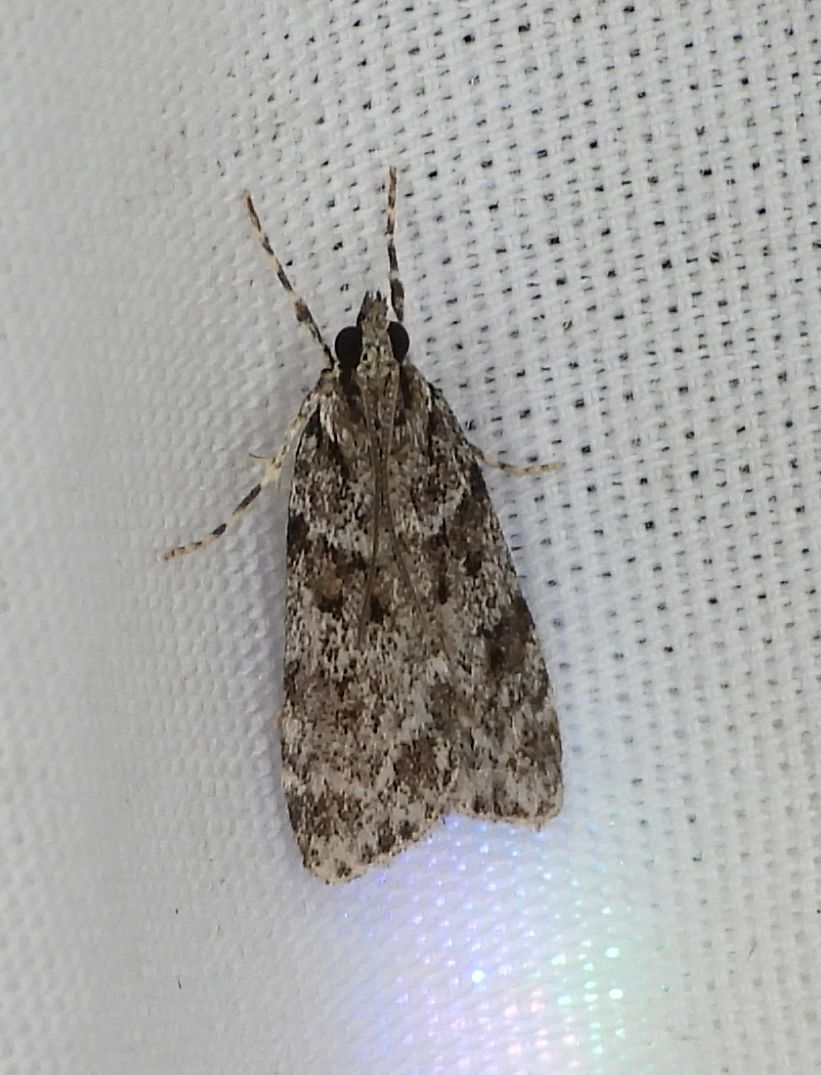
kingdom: Animalia
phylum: Arthropoda
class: Insecta
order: Lepidoptera
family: Crambidae
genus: Scoparia
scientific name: Scoparia biplagialis
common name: Double-striped scoparia moth
